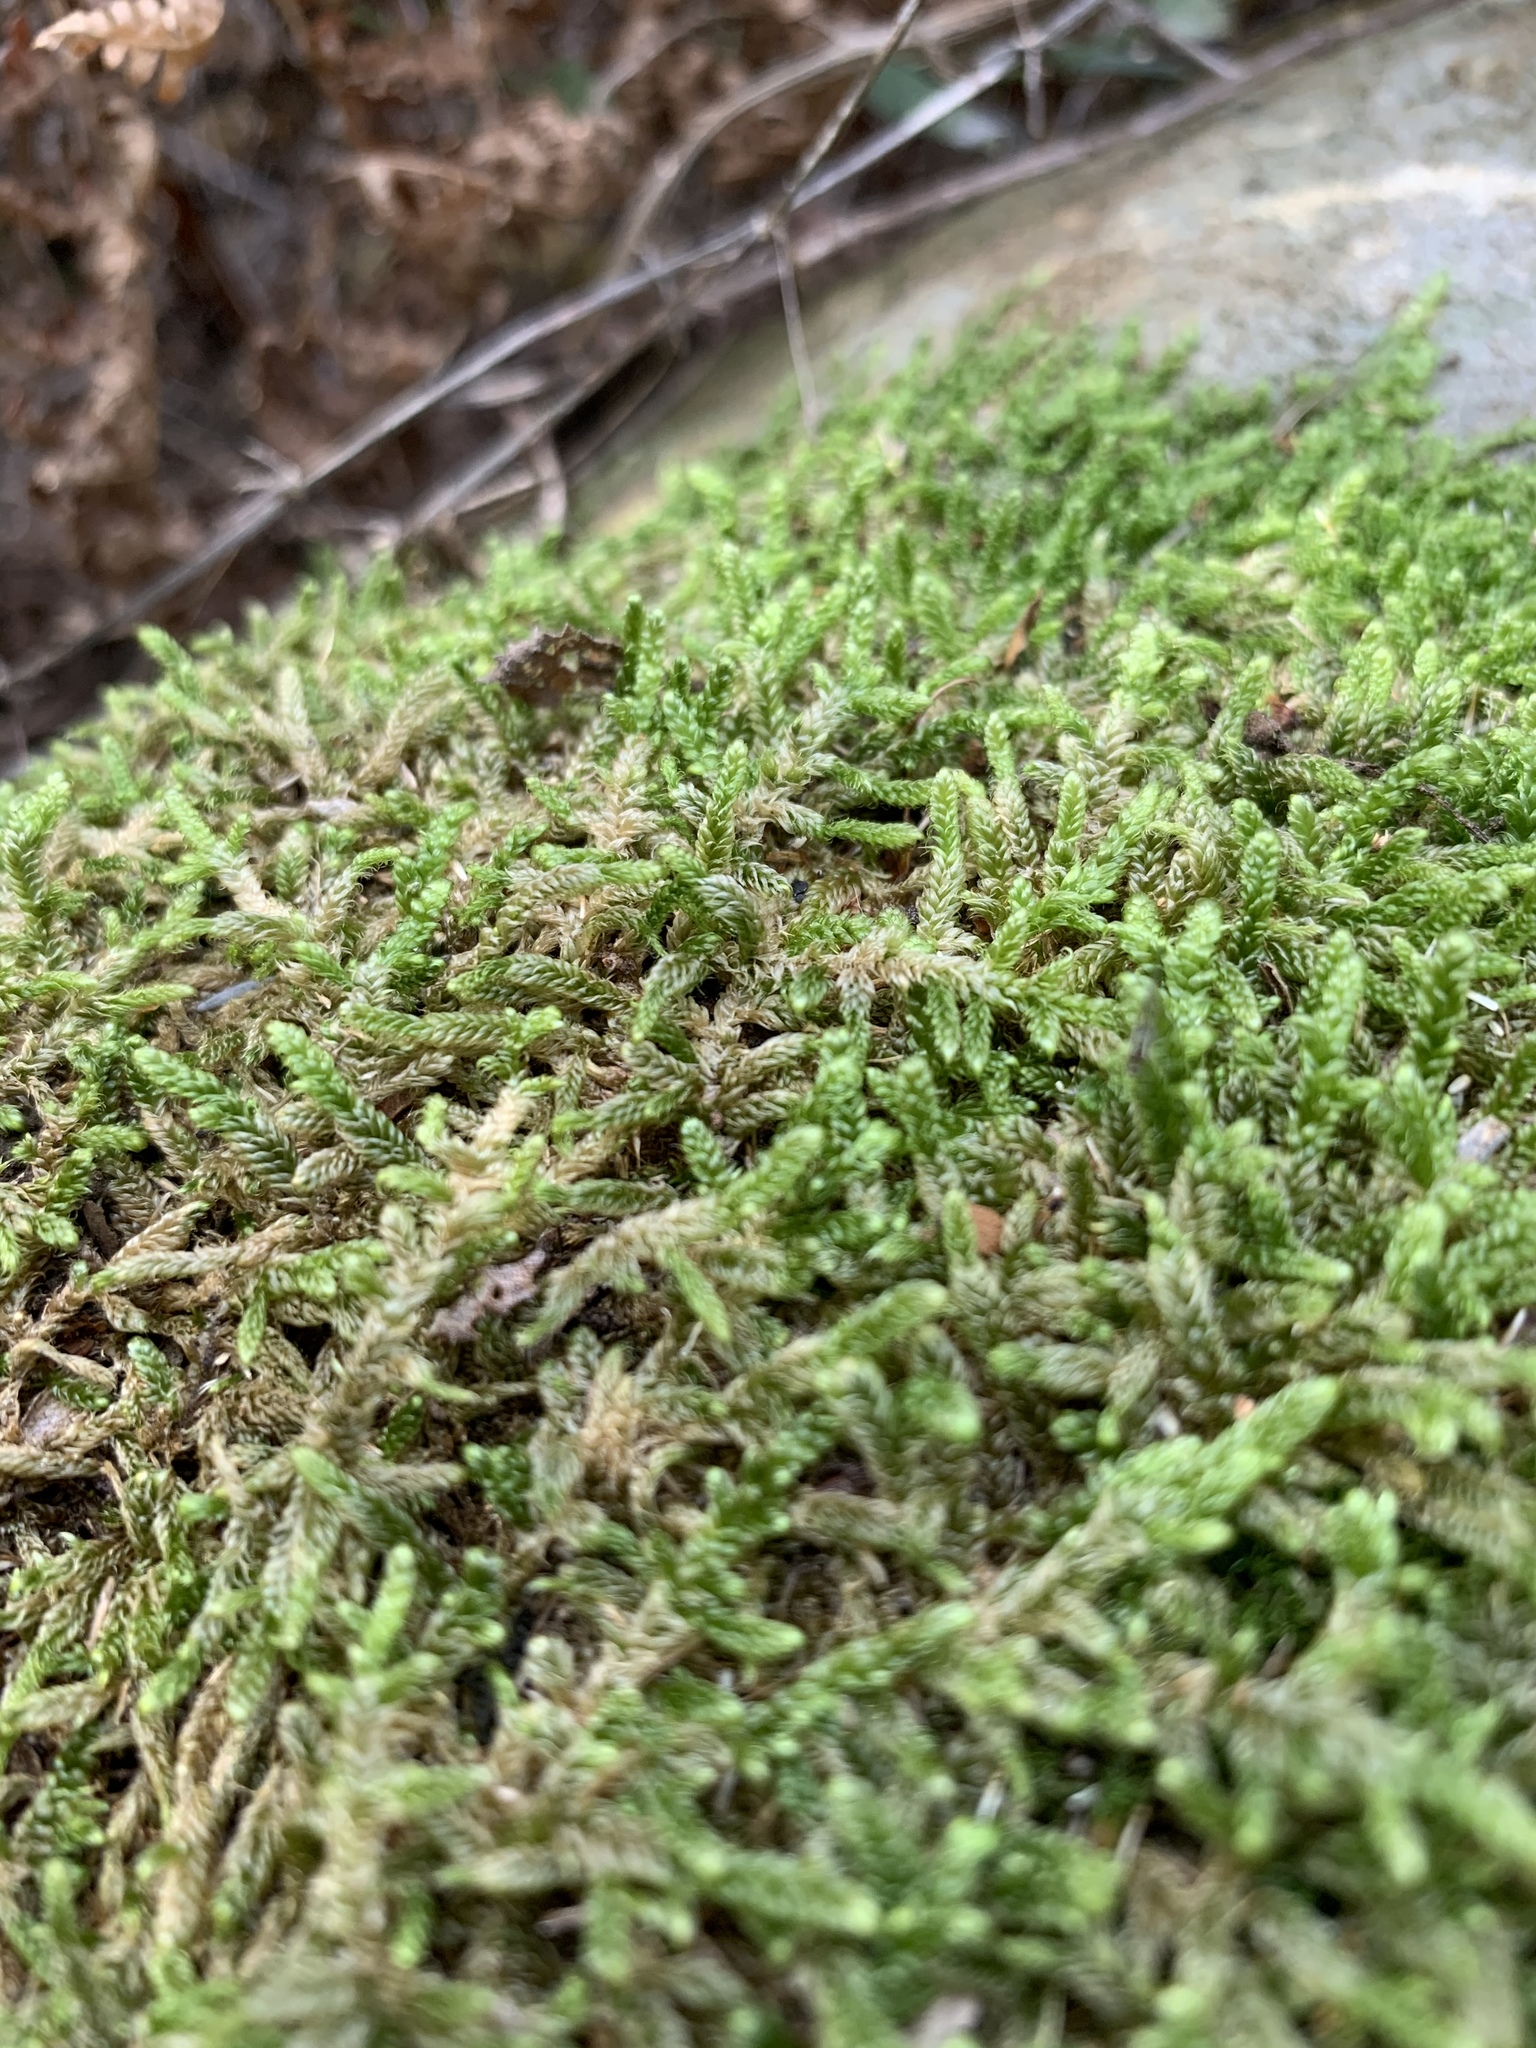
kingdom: Plantae
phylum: Bryophyta
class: Bryopsida
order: Hypnales
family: Hypnaceae
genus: Hypnum
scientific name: Hypnum cupressiforme
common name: Cypress-leaved plait-moss
